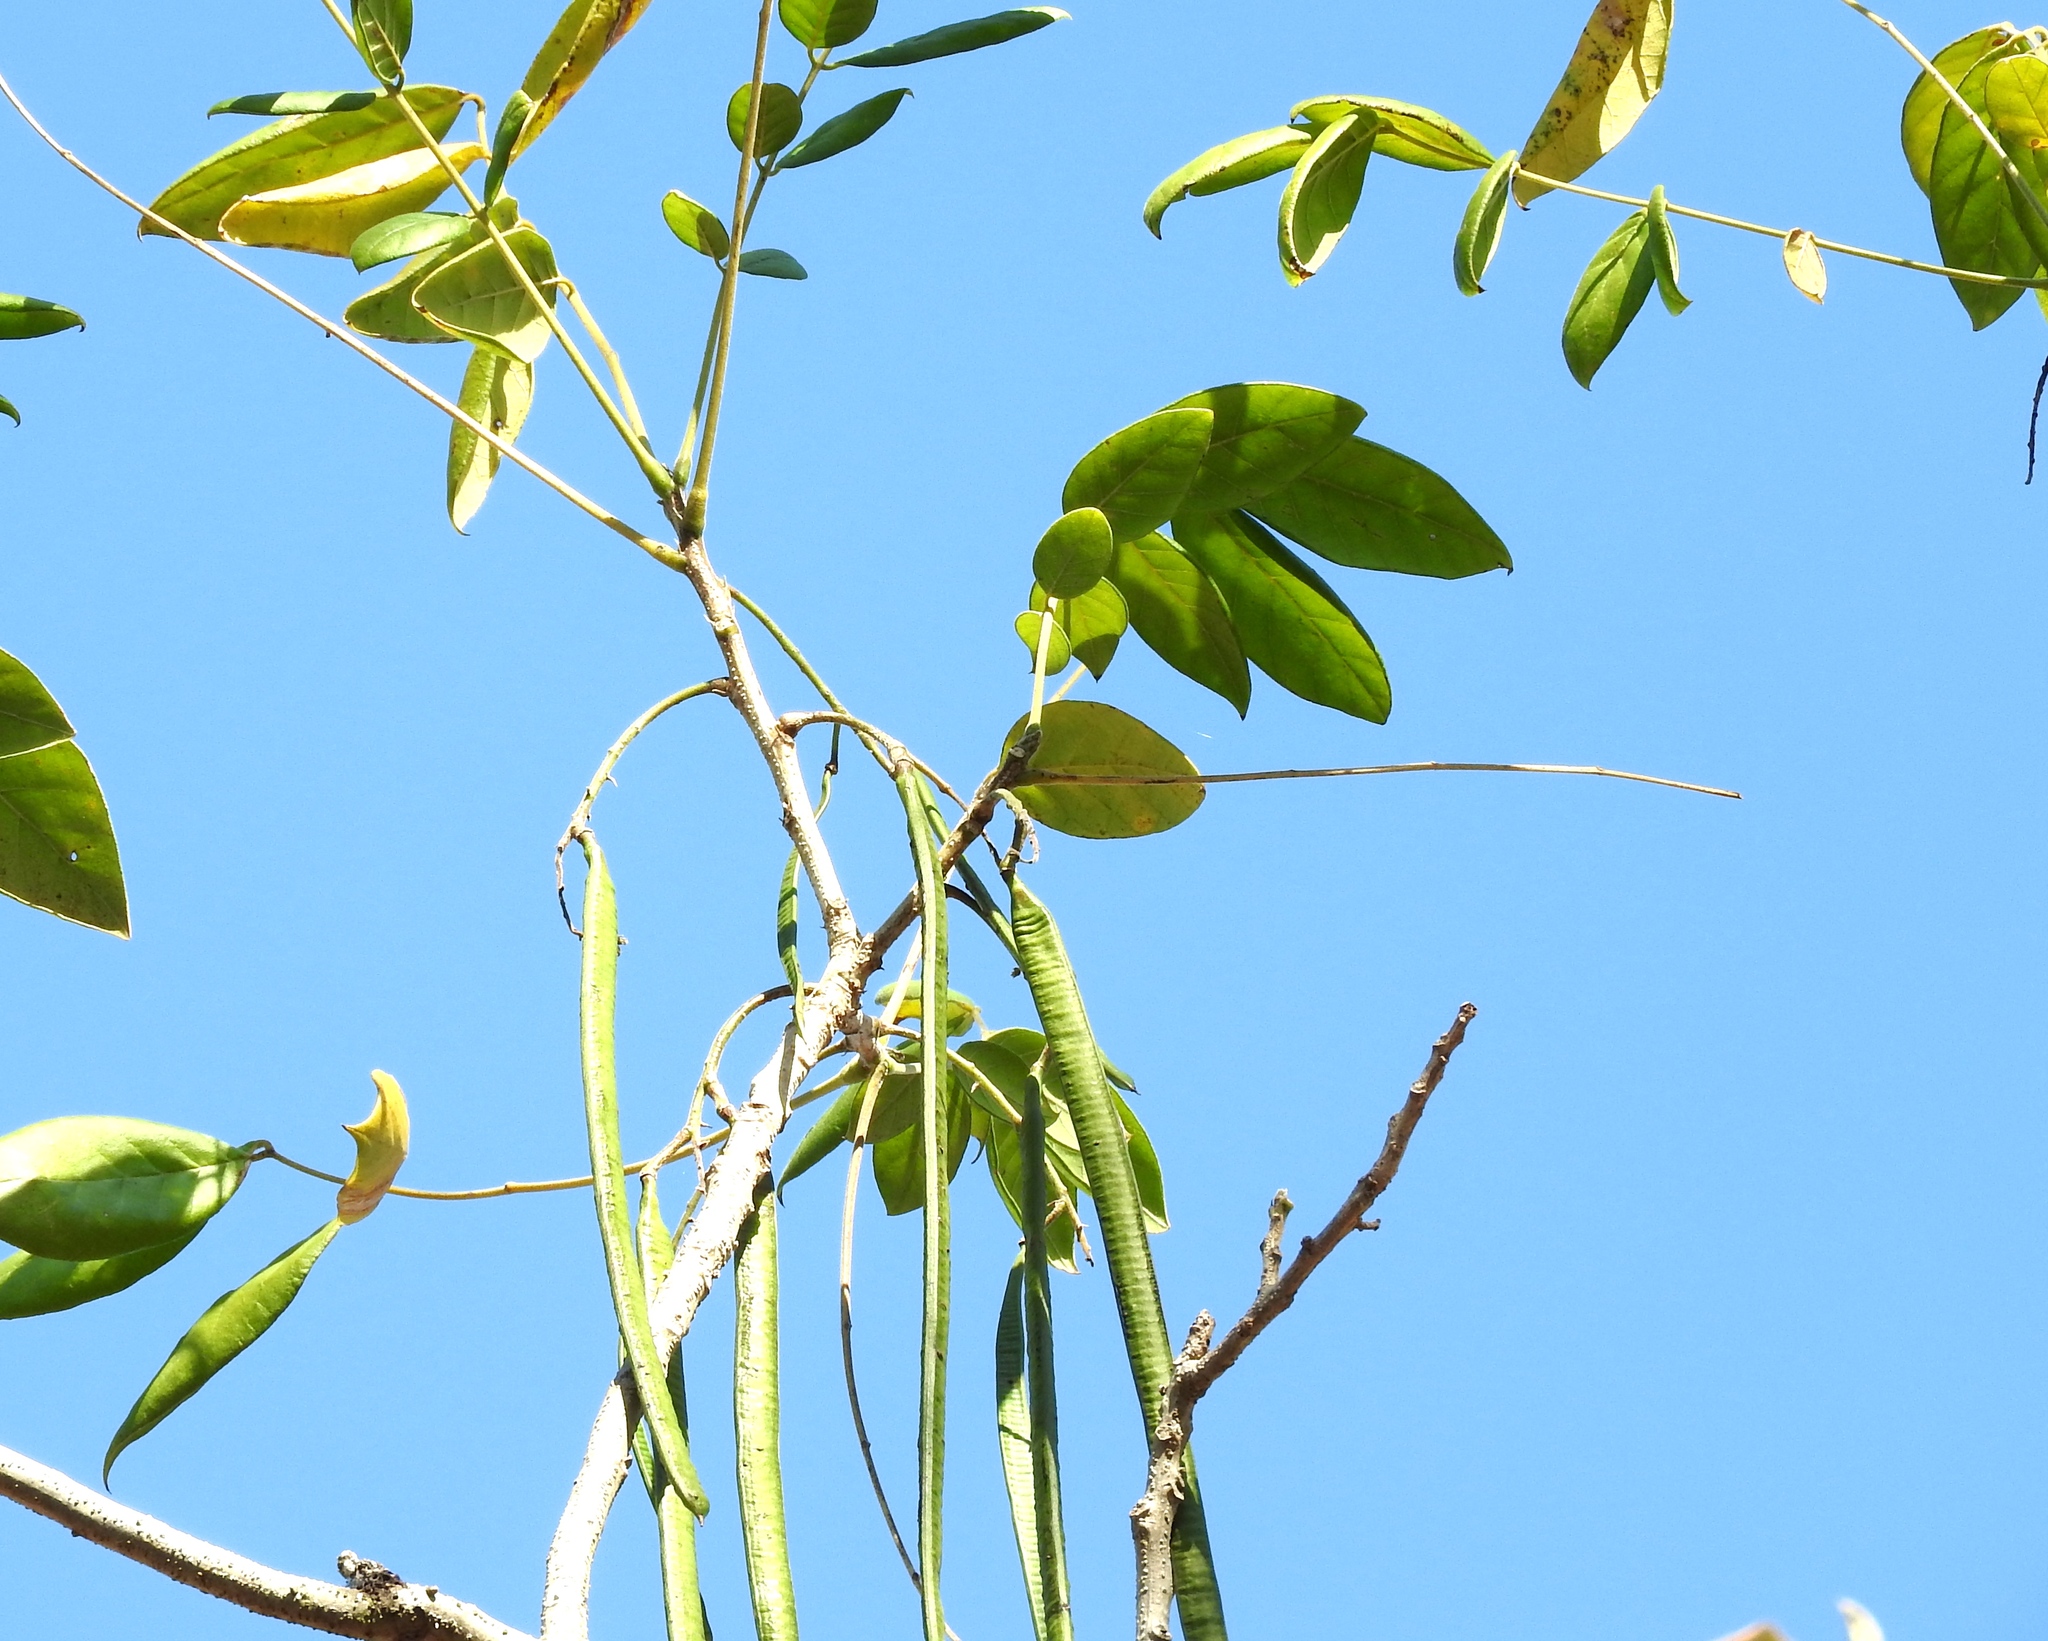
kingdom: Plantae
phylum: Tracheophyta
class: Magnoliopsida
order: Fabales
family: Fabaceae
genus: Senna
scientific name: Senna atomaria
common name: Flor de san jose
